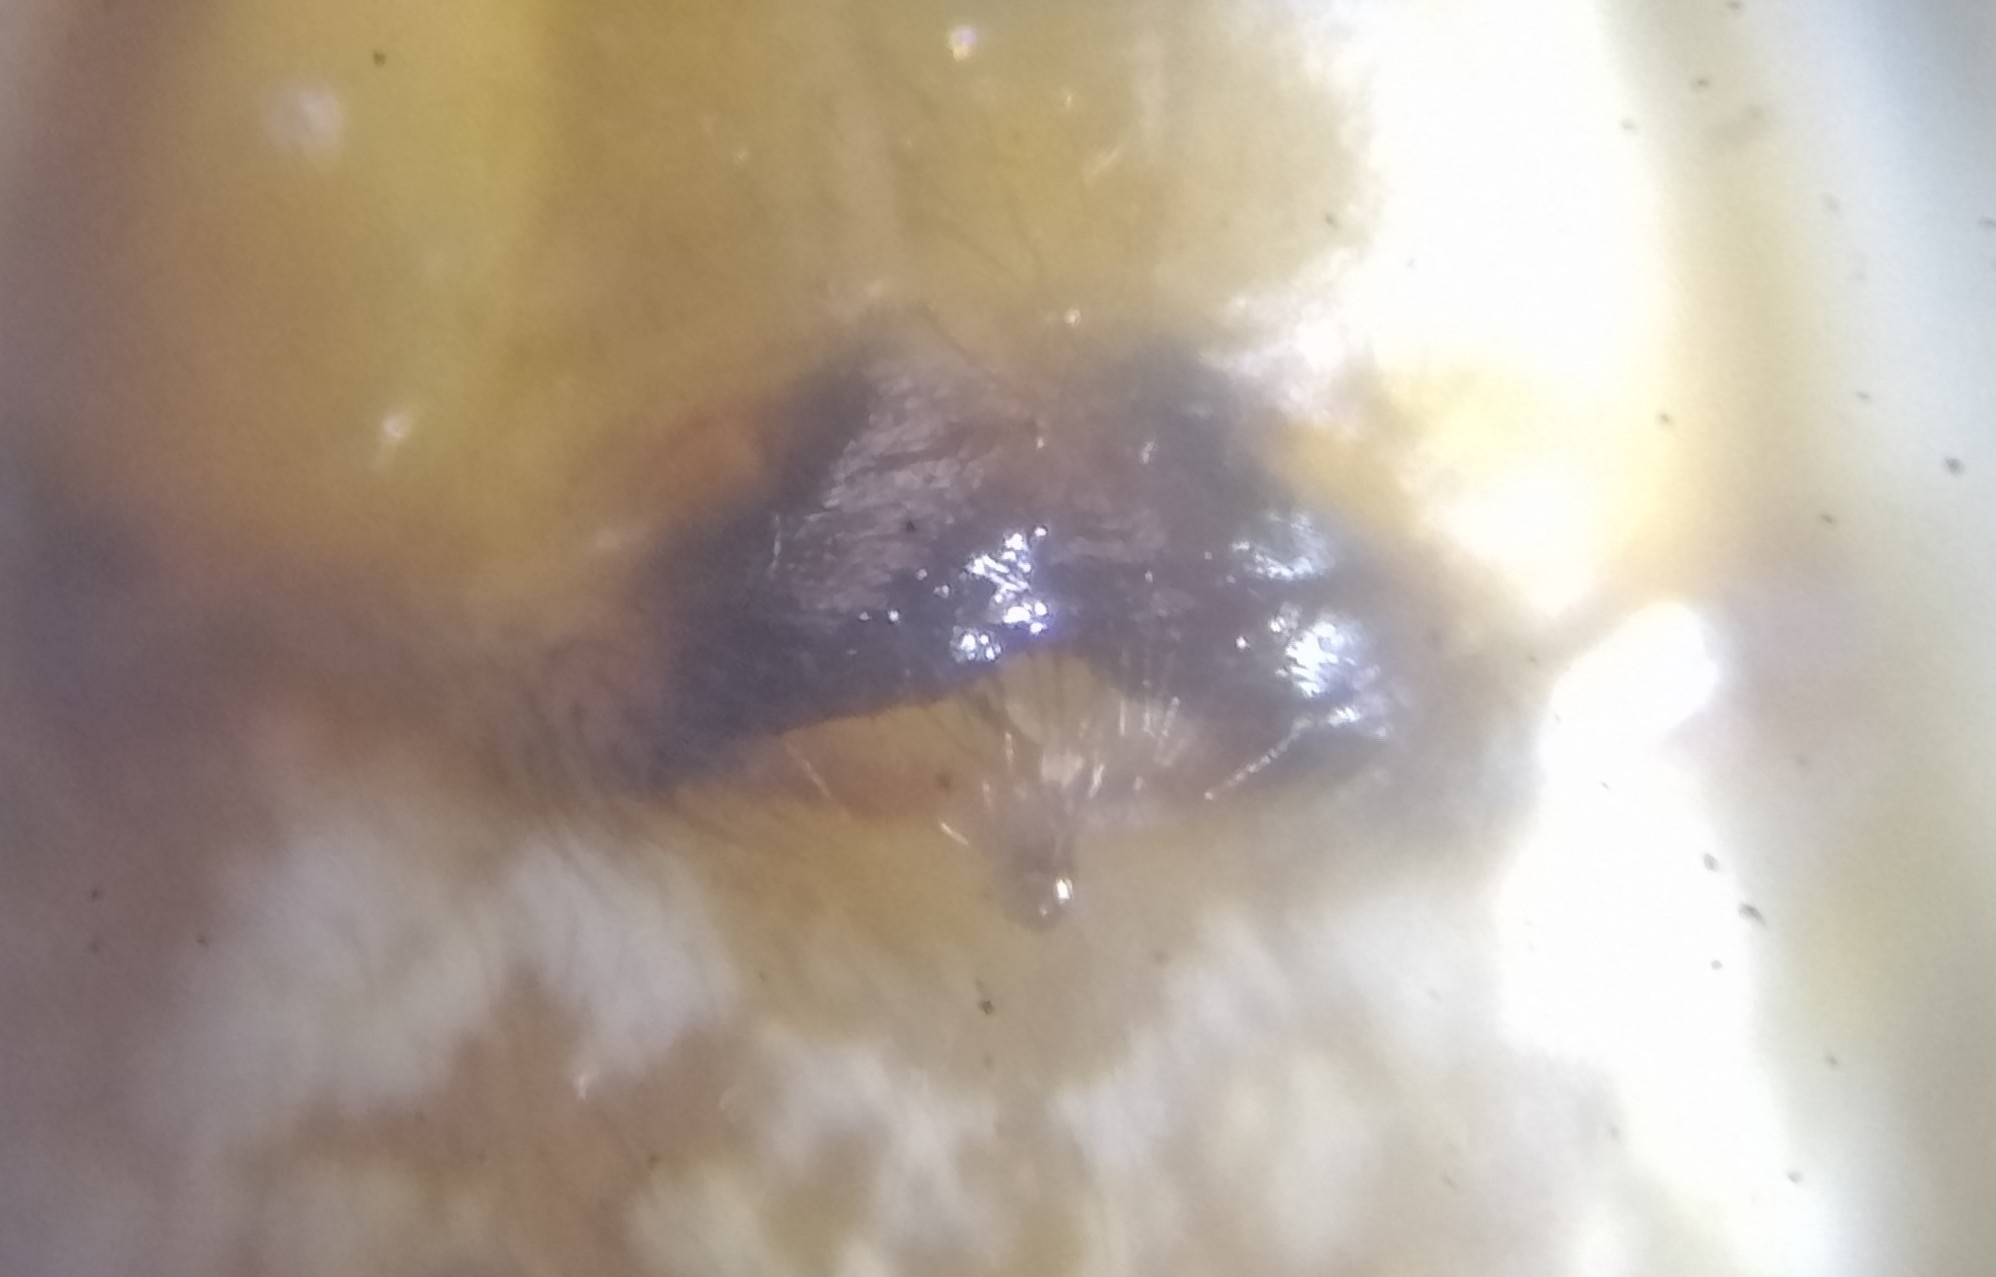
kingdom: Animalia
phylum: Arthropoda
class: Arachnida
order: Araneae
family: Linyphiidae
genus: Neriene
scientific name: Neriene emphana
